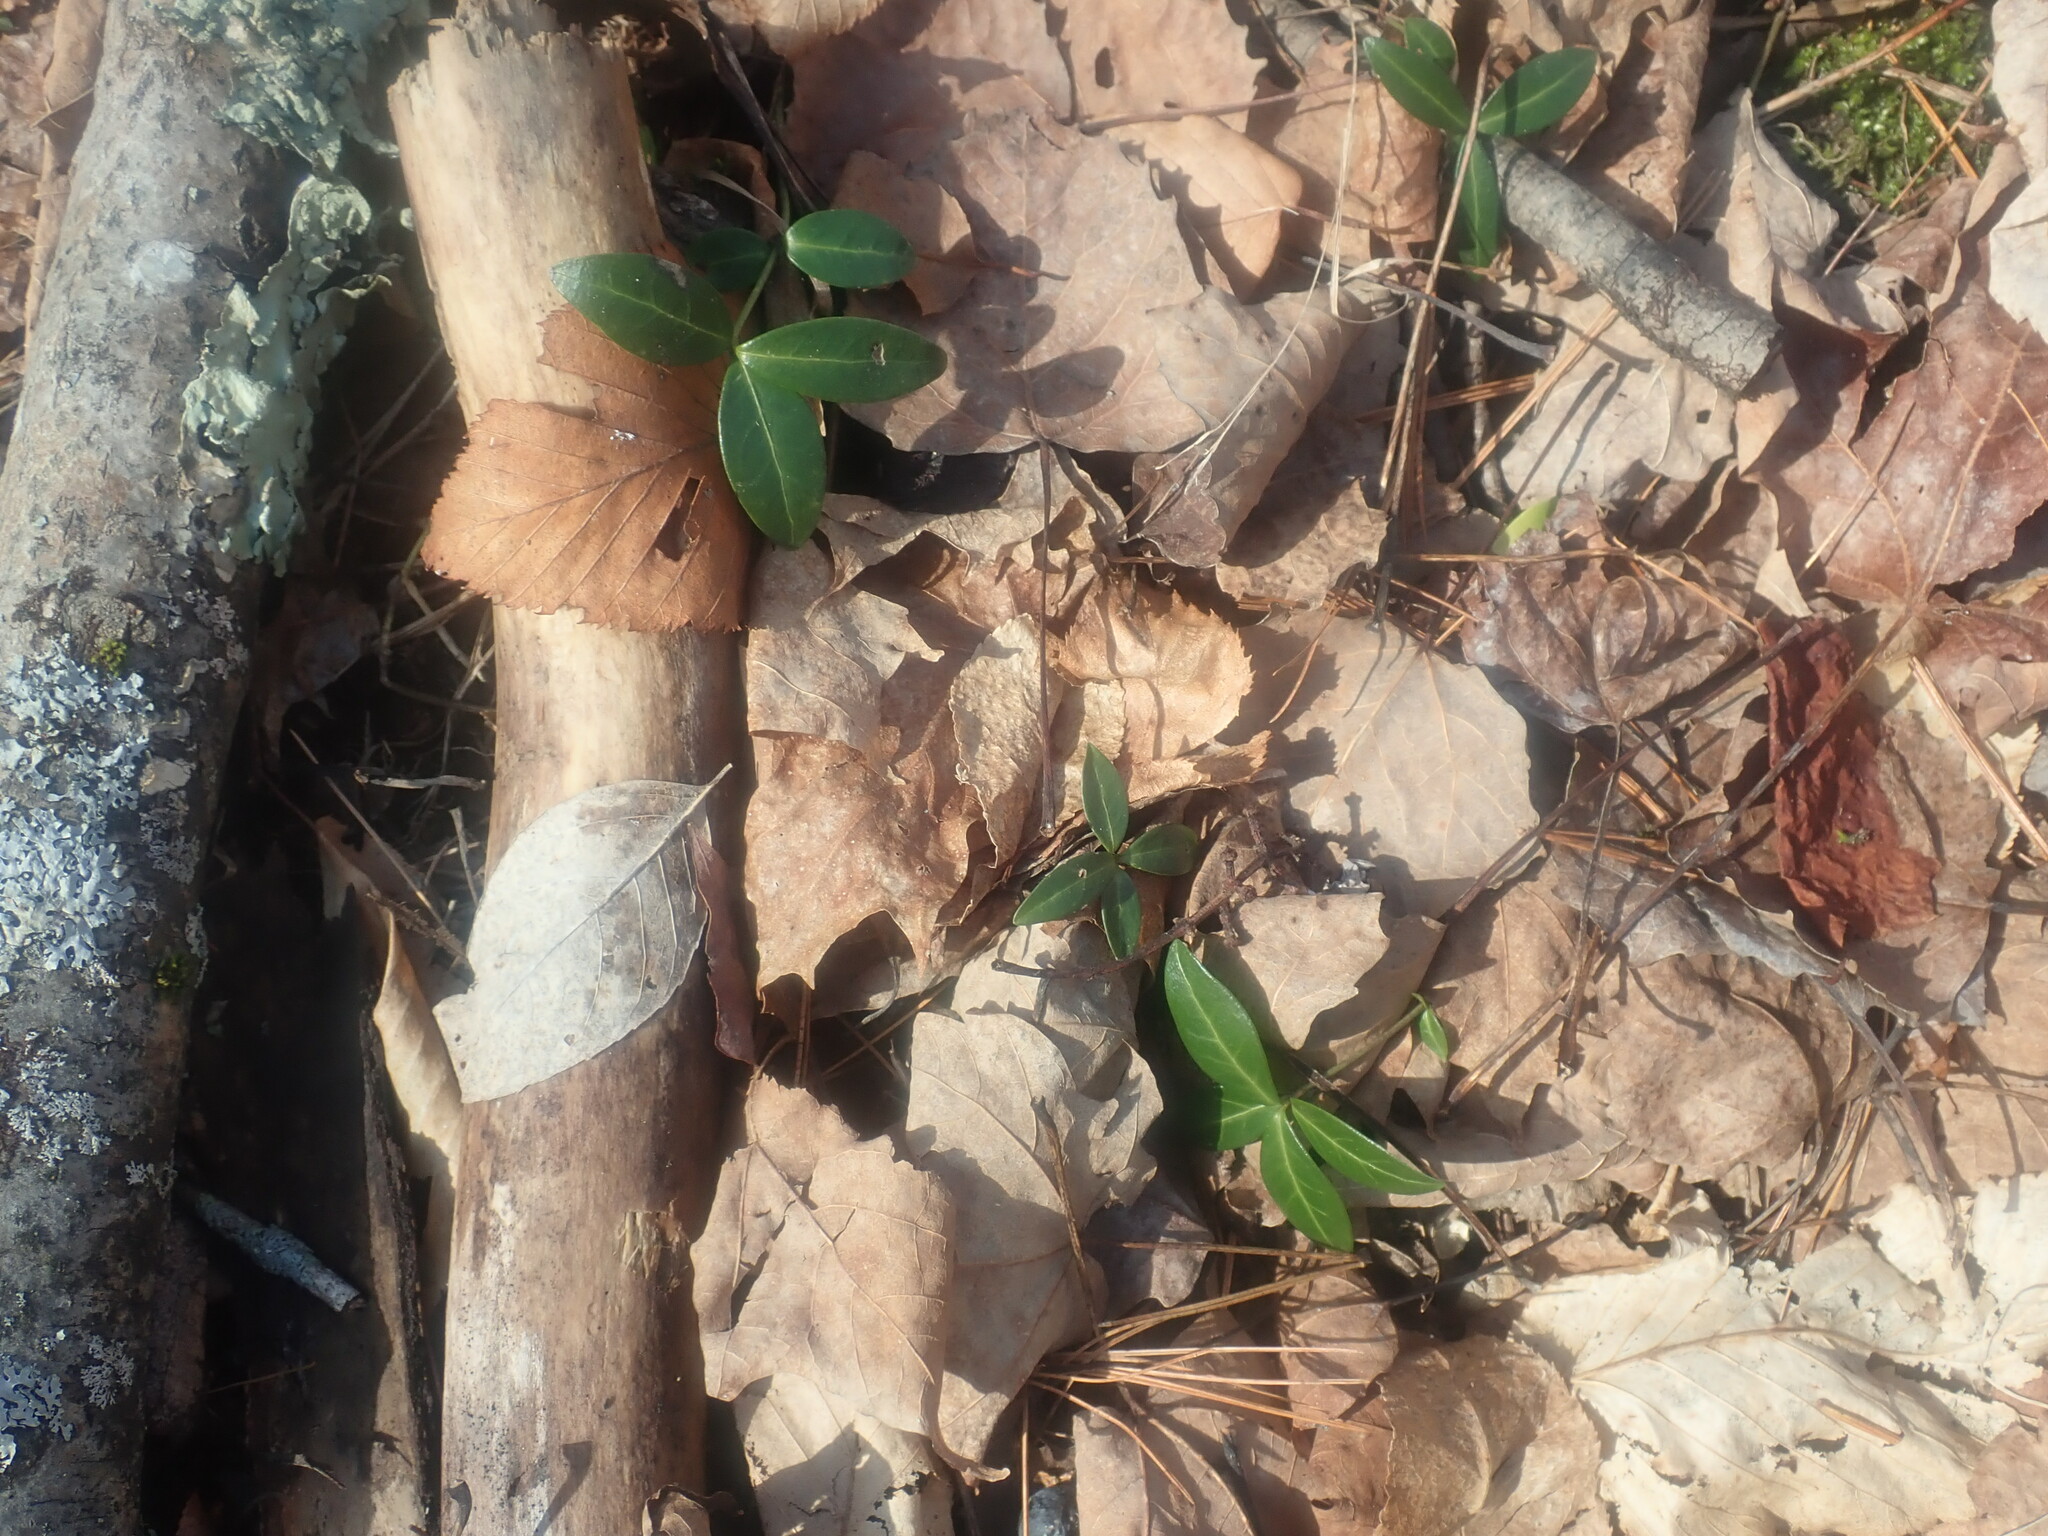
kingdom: Plantae
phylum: Tracheophyta
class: Magnoliopsida
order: Gentianales
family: Apocynaceae
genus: Vinca
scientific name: Vinca minor
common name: Lesser periwinkle
